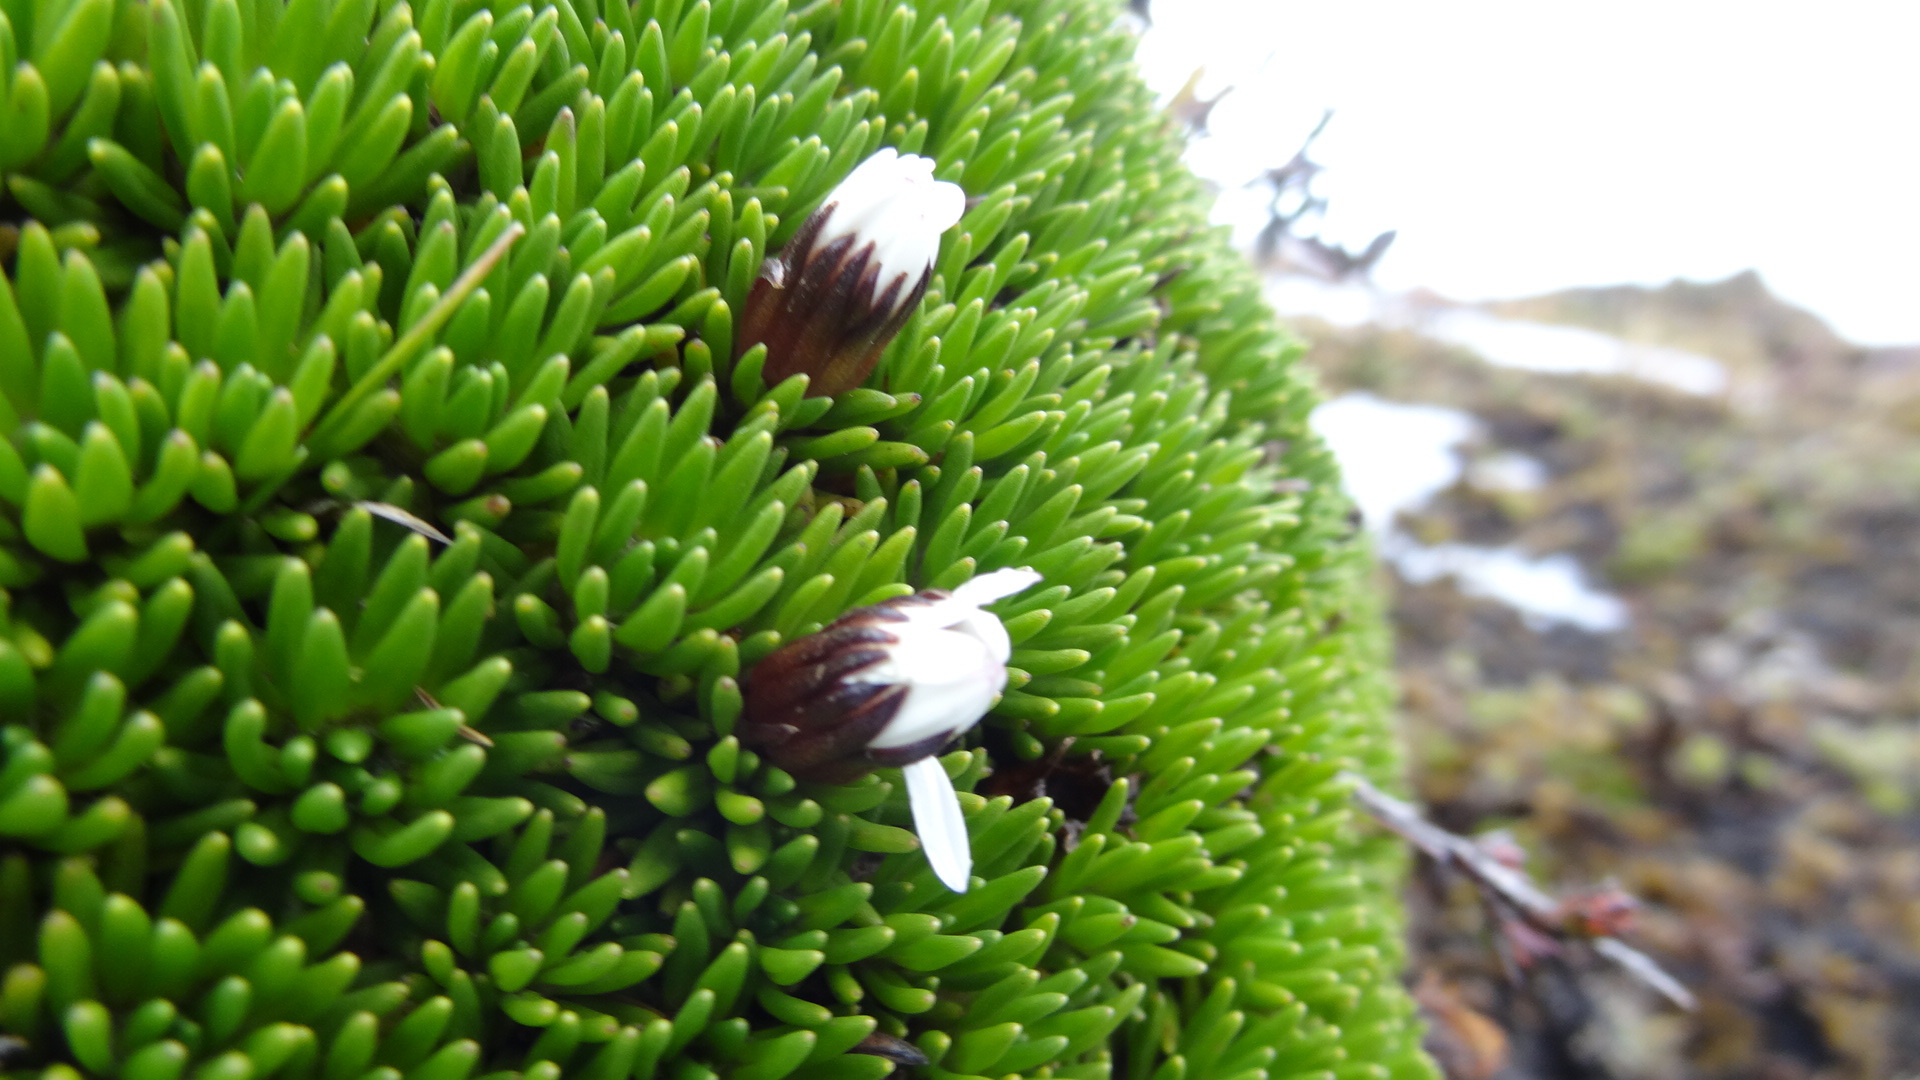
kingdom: Plantae
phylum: Tracheophyta
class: Magnoliopsida
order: Asterales
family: Asteraceae
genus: Werneria
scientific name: Werneria humilis
